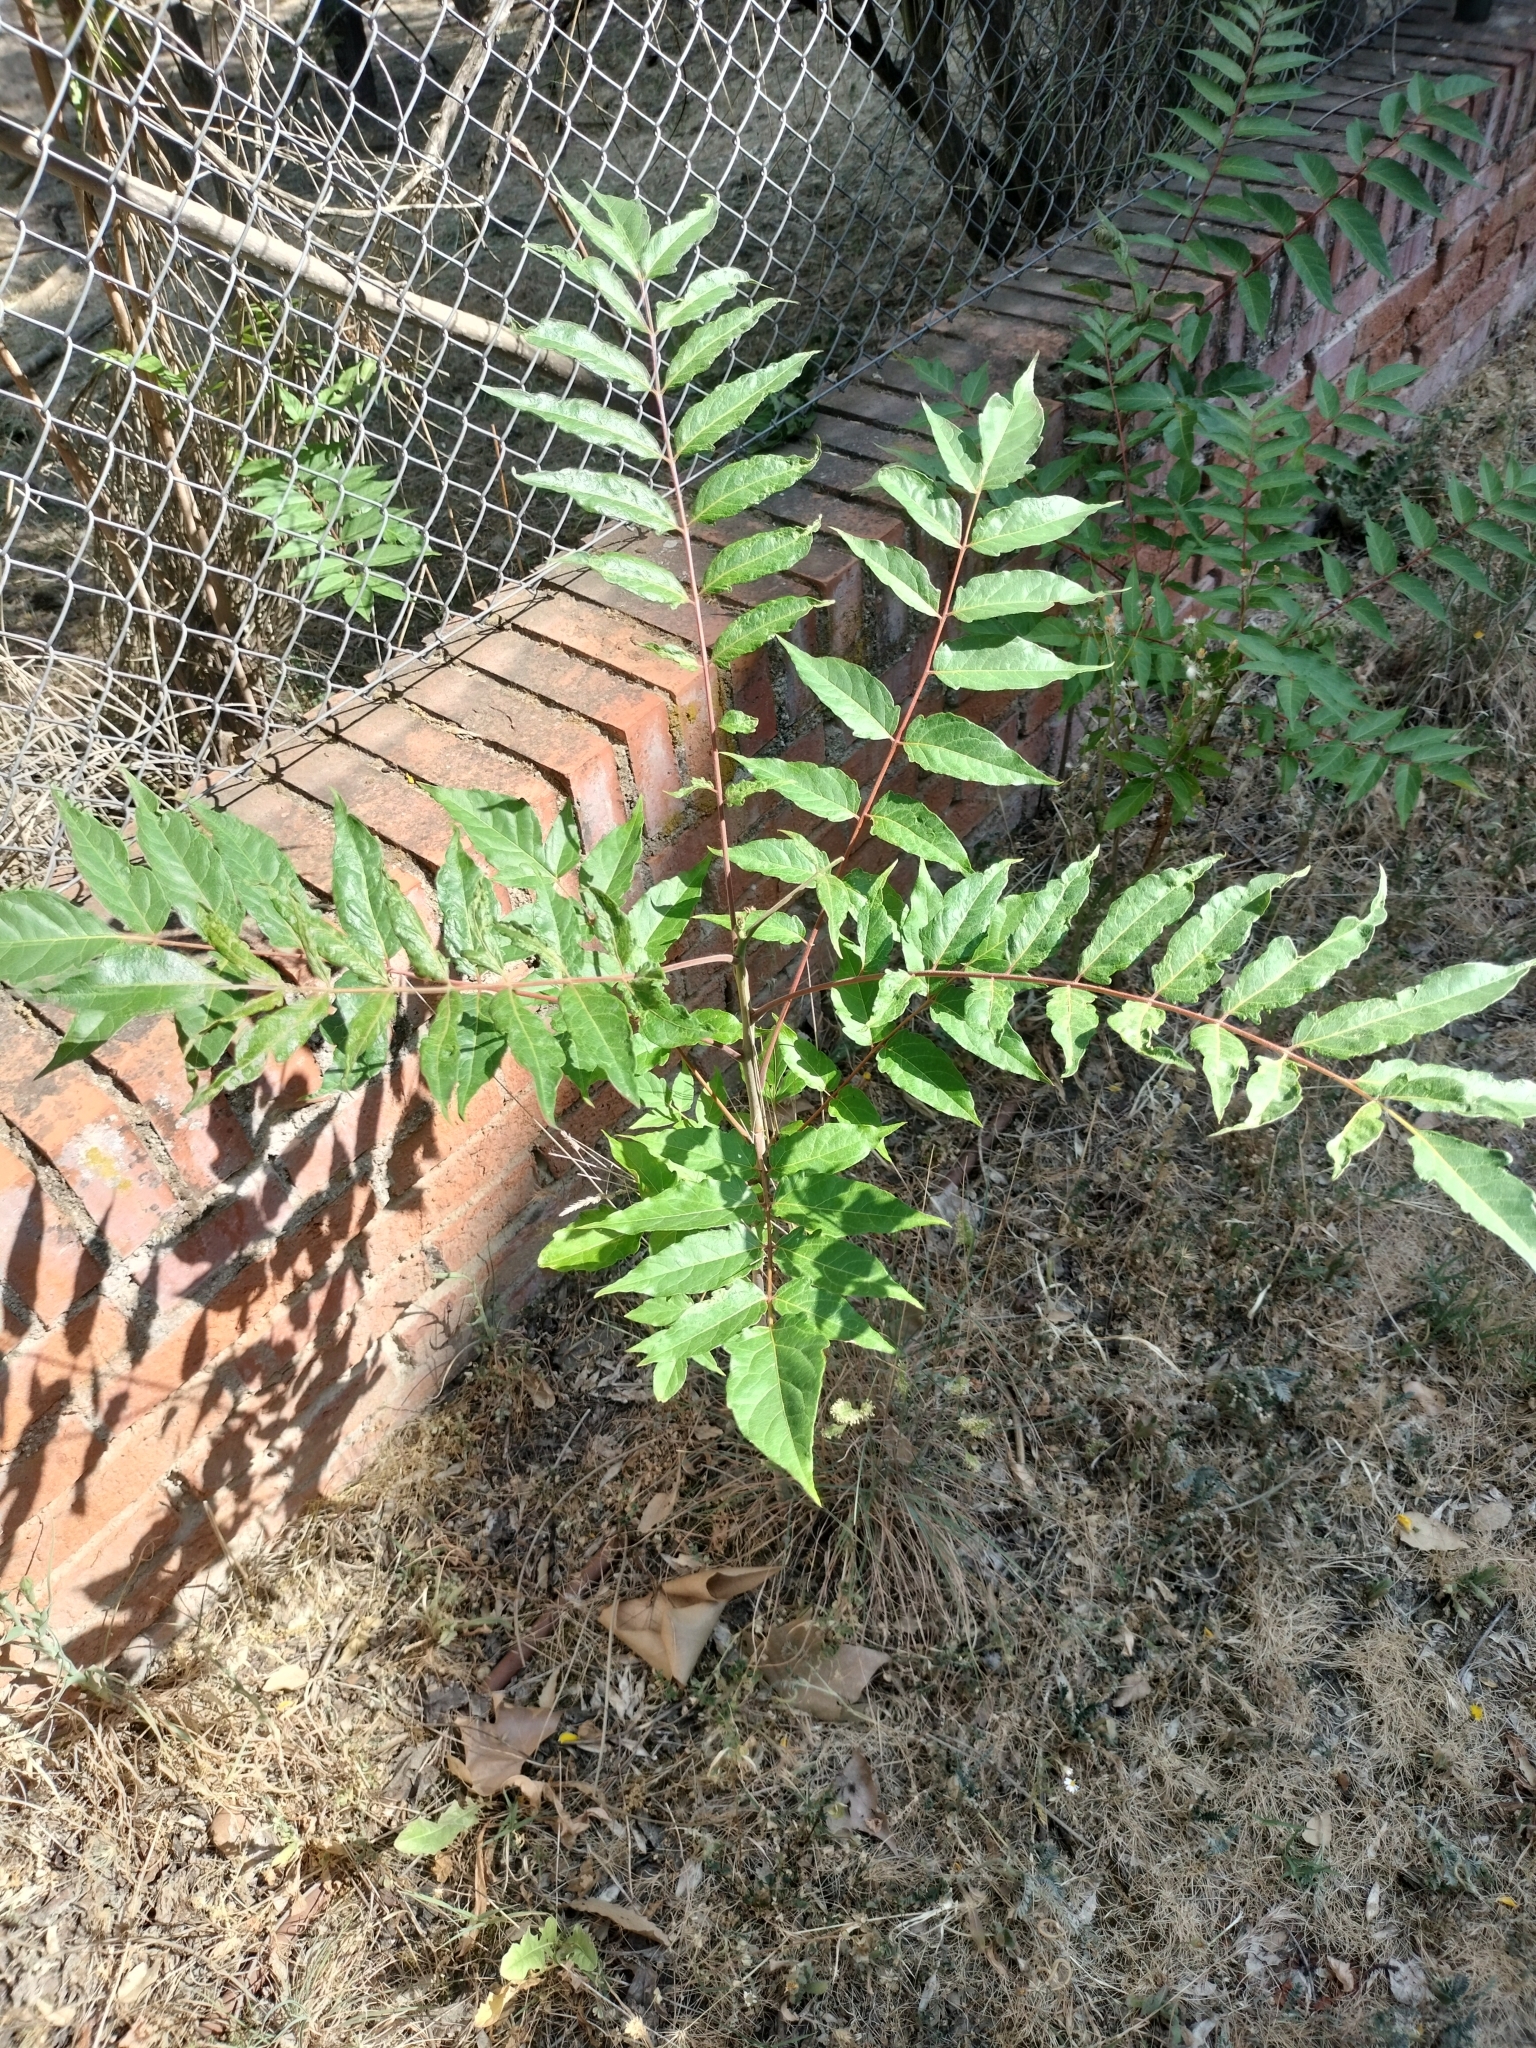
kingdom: Plantae
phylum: Tracheophyta
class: Magnoliopsida
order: Sapindales
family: Simaroubaceae
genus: Ailanthus
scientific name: Ailanthus altissima
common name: Tree-of-heaven
